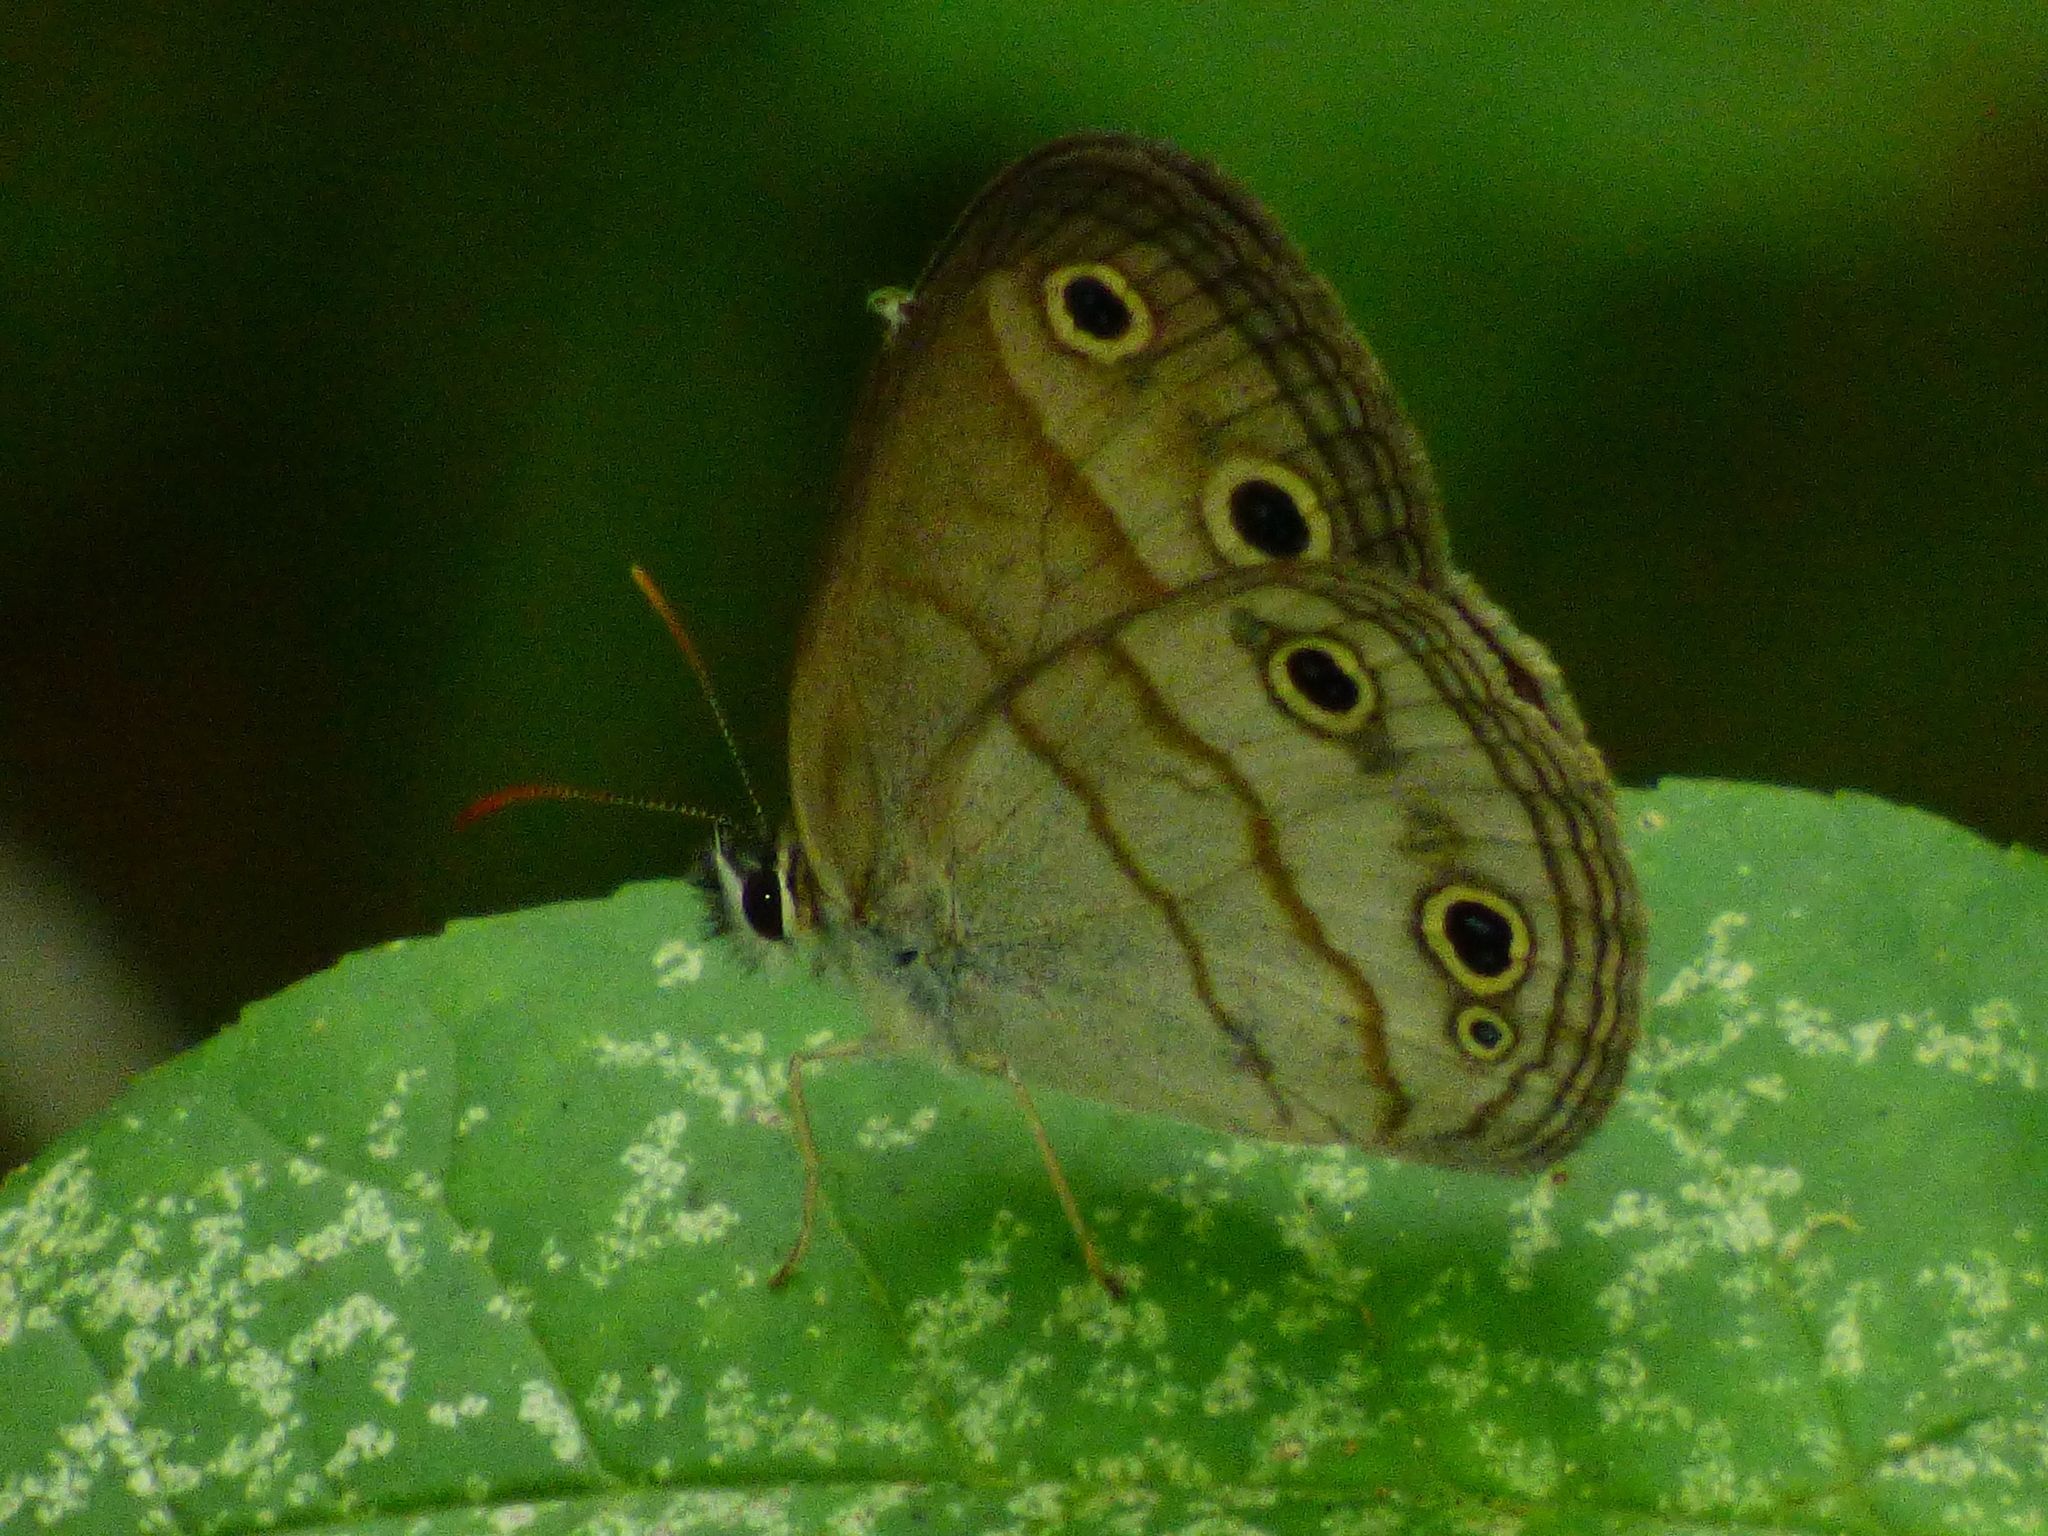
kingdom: Animalia
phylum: Arthropoda
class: Insecta
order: Lepidoptera
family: Nymphalidae
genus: Euptychia
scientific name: Euptychia cymela
